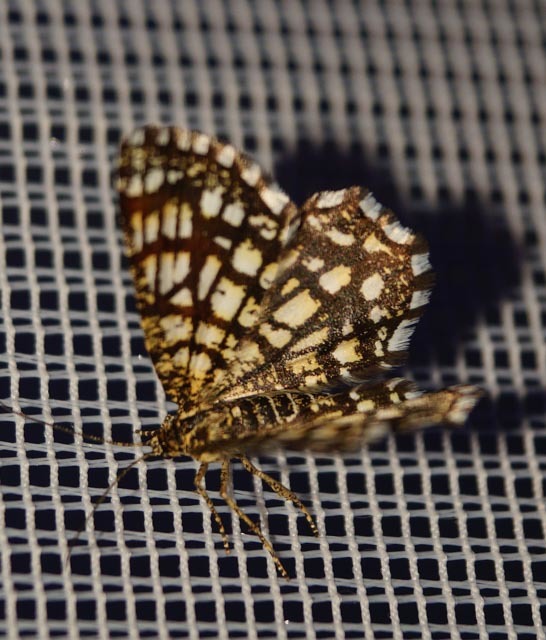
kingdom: Animalia
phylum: Arthropoda
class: Insecta
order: Lepidoptera
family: Geometridae
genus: Chiasmia
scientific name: Chiasmia clathrata
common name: Latticed heath
